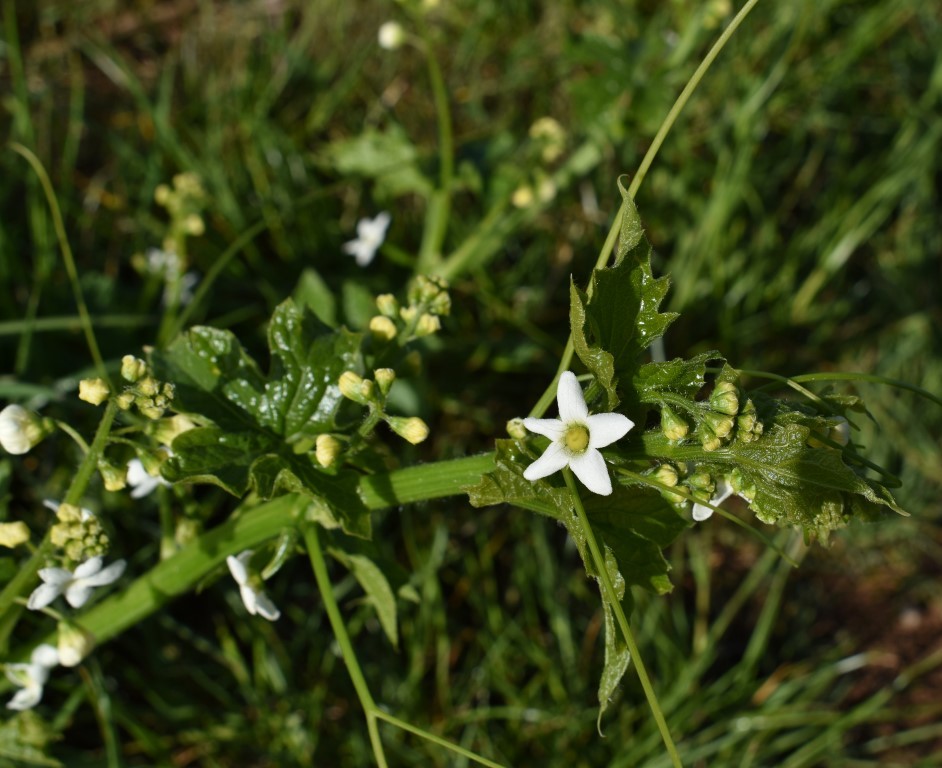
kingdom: Plantae
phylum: Tracheophyta
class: Magnoliopsida
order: Cucurbitales
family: Cucurbitaceae
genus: Marah
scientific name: Marah oregana
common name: Coastal manroot
